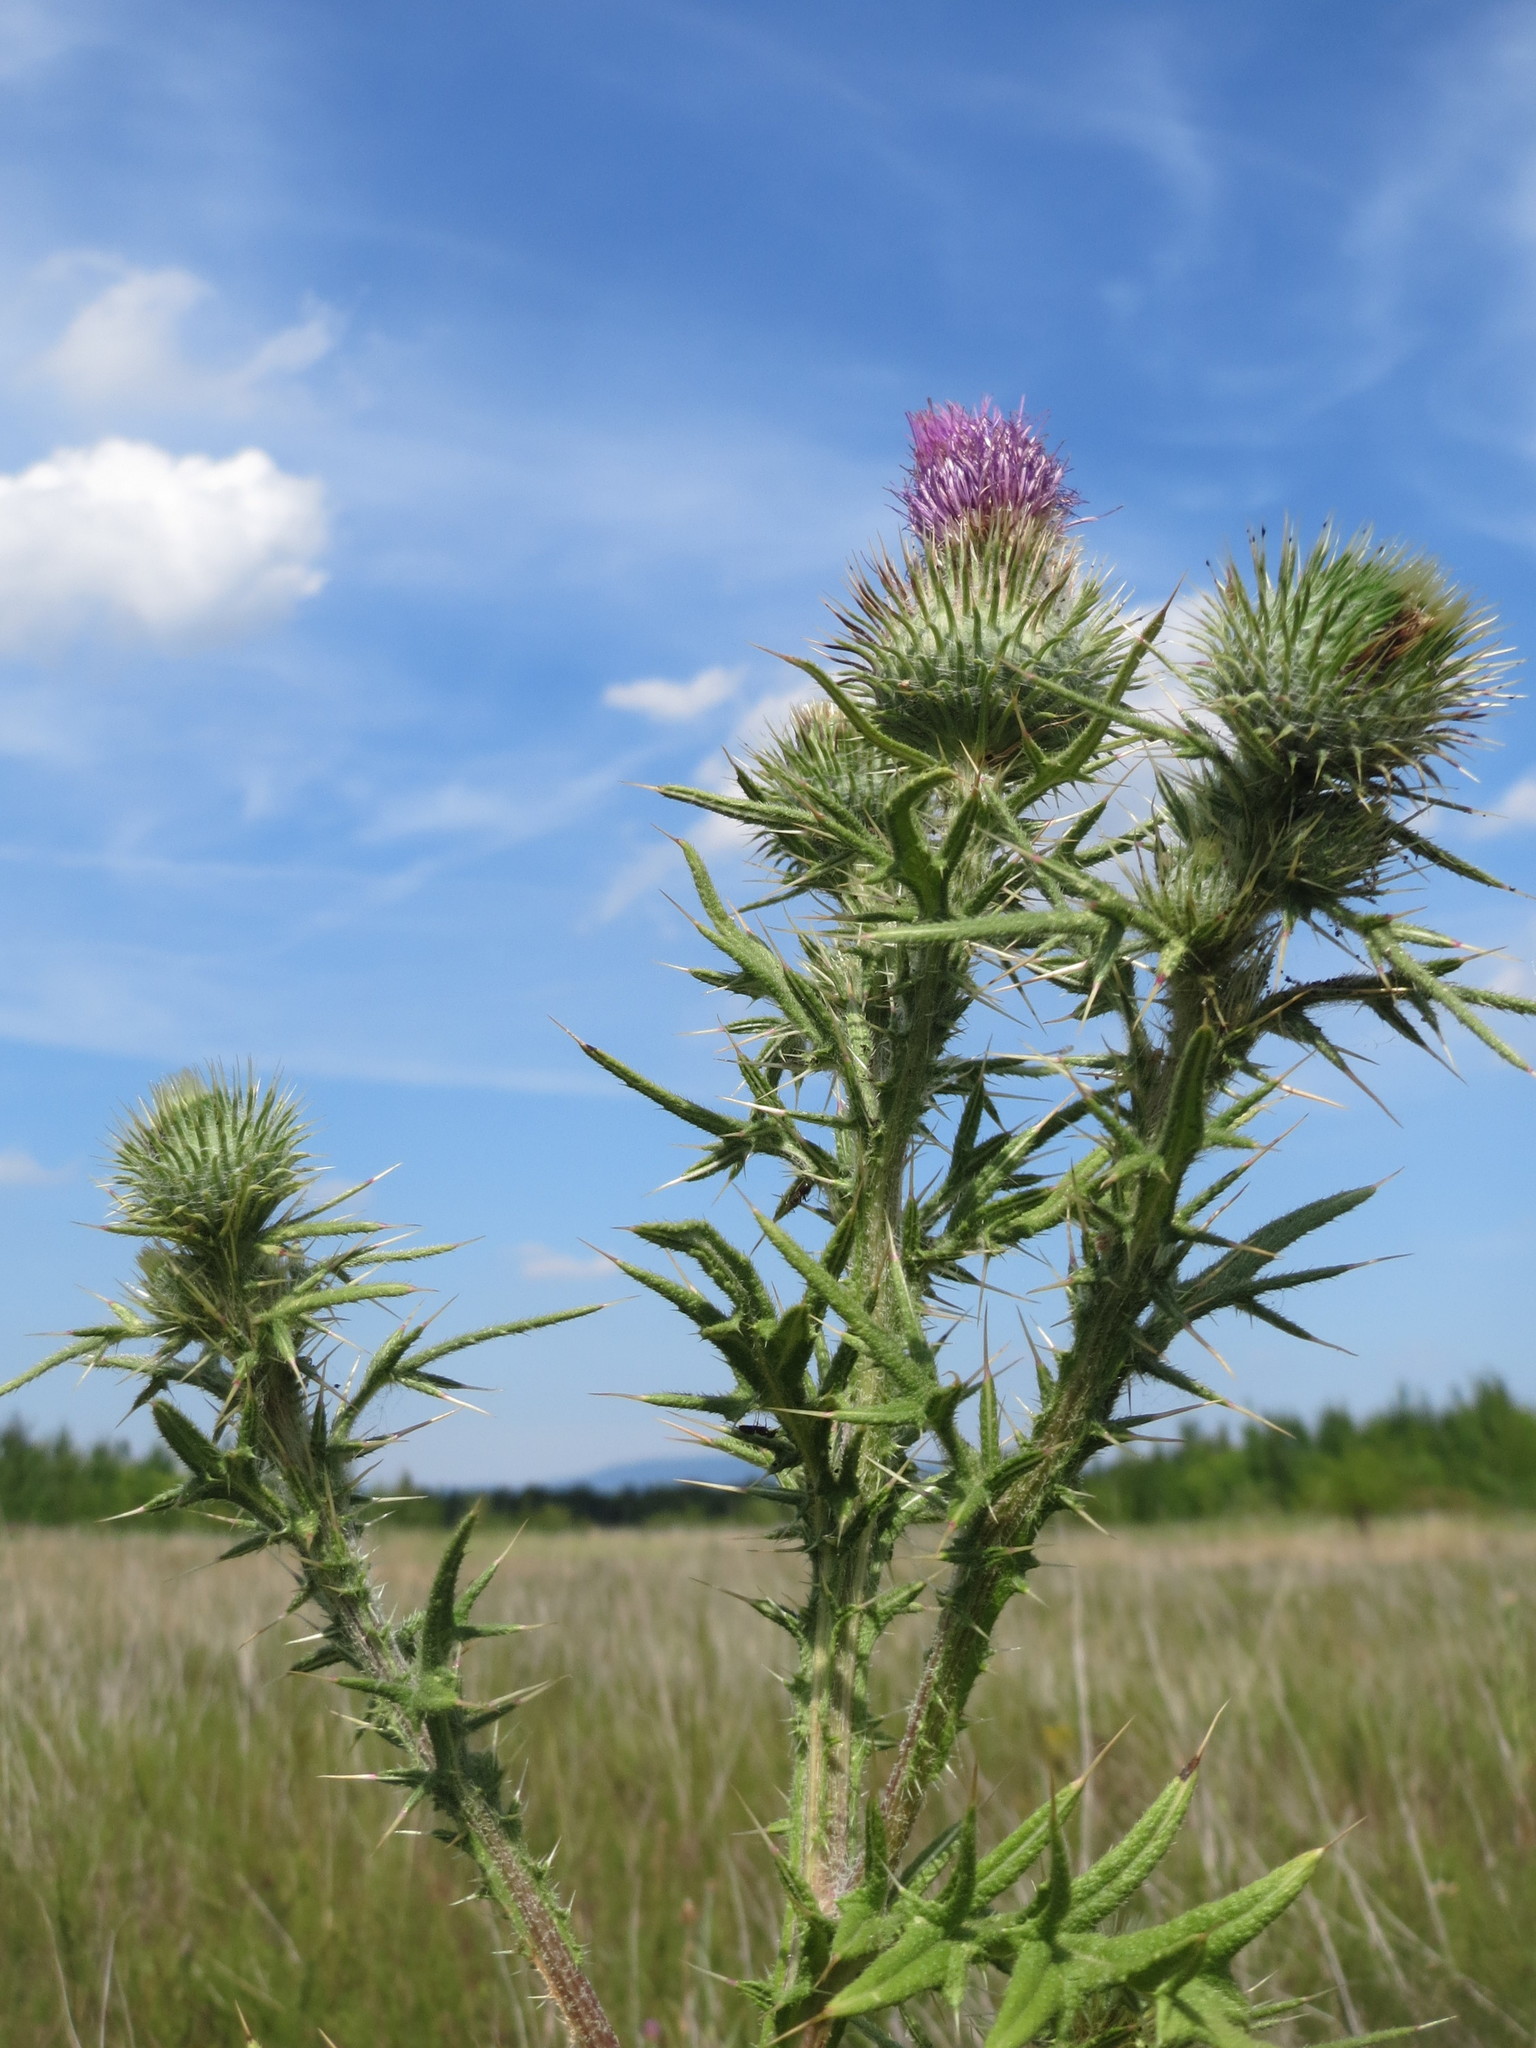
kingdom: Plantae
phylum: Tracheophyta
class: Magnoliopsida
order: Asterales
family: Asteraceae
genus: Cirsium
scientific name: Cirsium vulgare
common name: Bull thistle
